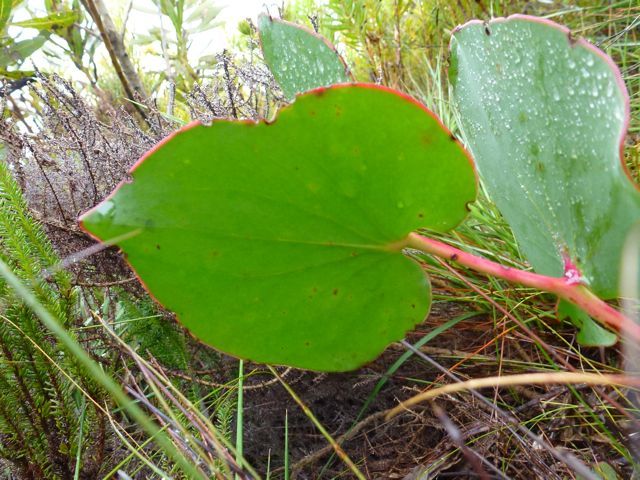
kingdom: Plantae
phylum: Tracheophyta
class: Magnoliopsida
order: Proteales
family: Proteaceae
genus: Protea
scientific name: Protea cordata
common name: Heart-leaf sugarbush
